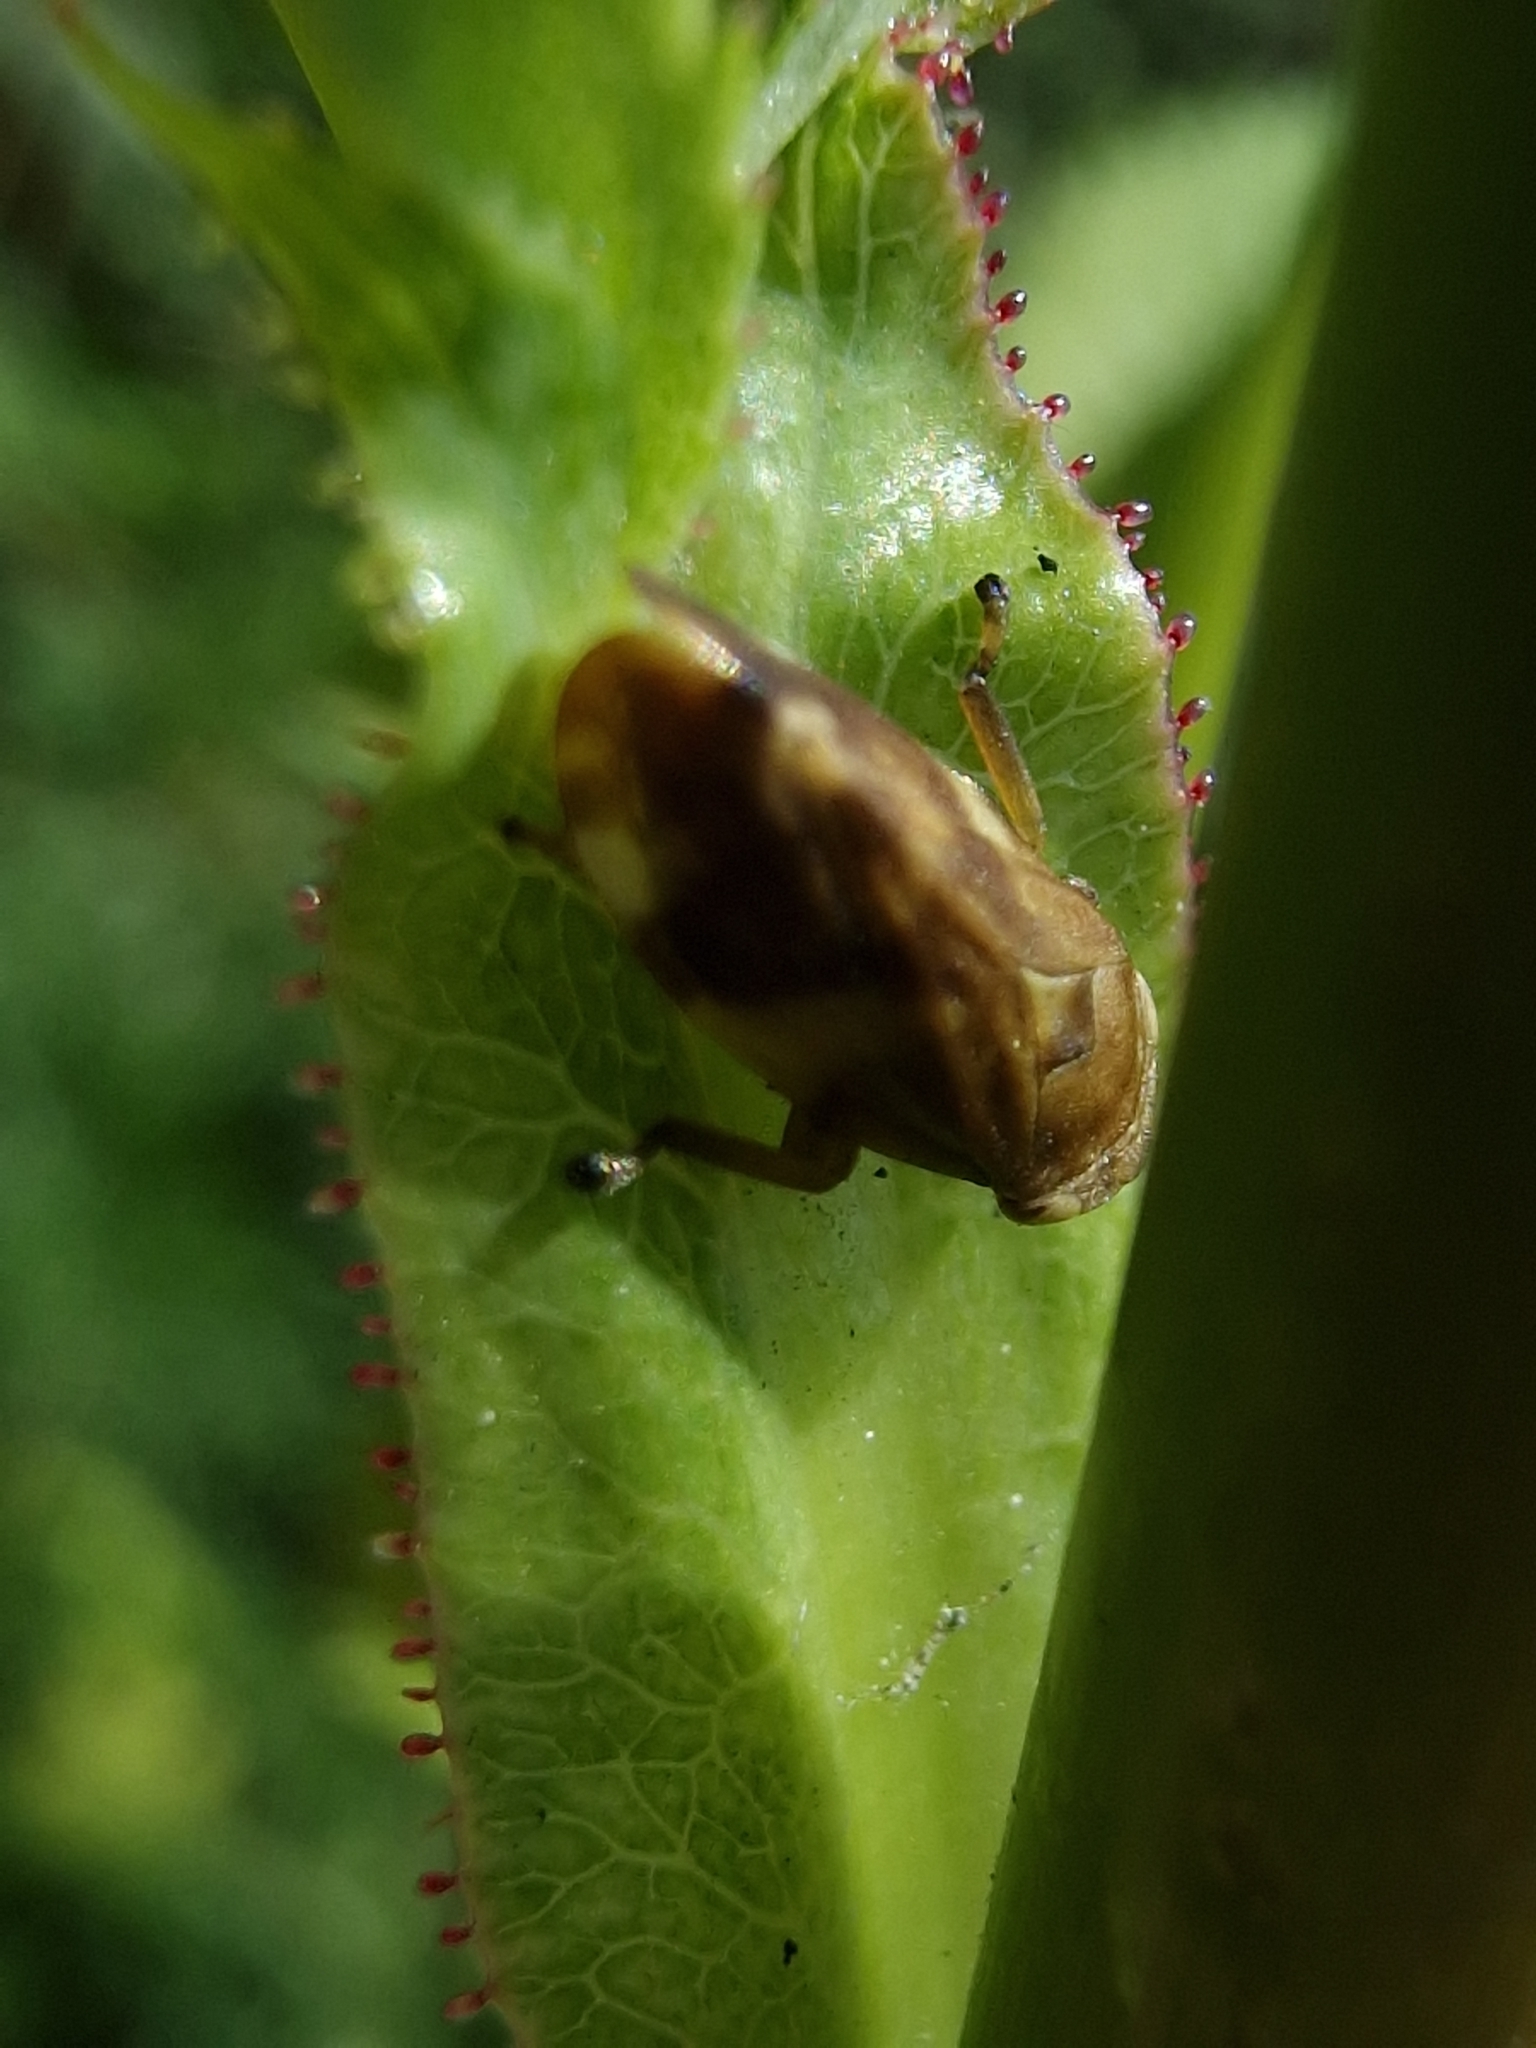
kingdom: Animalia
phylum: Arthropoda
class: Insecta
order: Hemiptera
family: Aphrophoridae
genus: Philaenus
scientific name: Philaenus spumarius
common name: Meadow spittlebug
